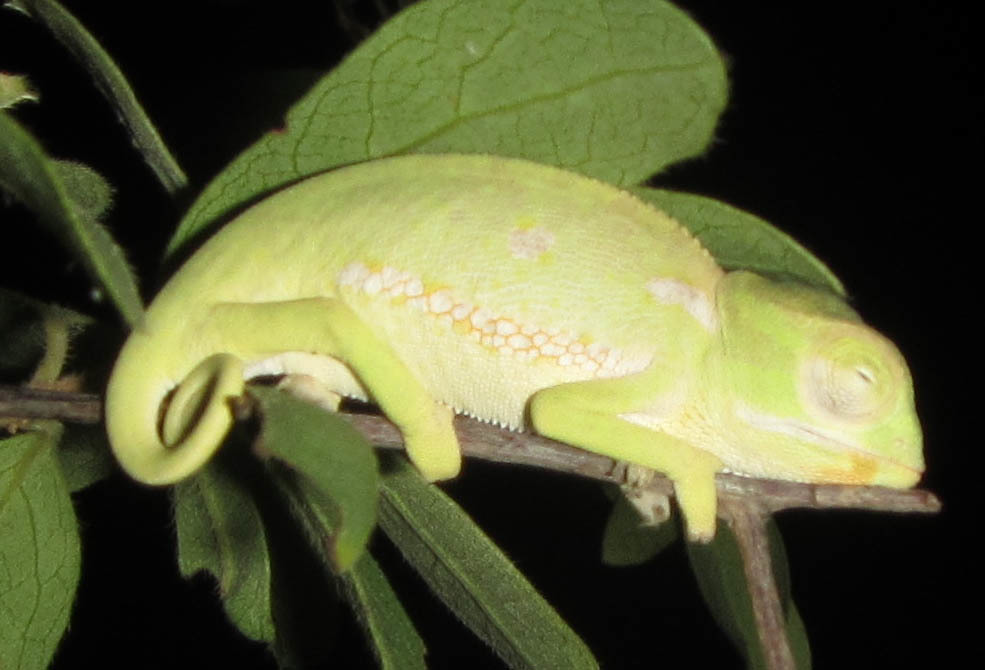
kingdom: Animalia
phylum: Chordata
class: Squamata
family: Chamaeleonidae
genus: Chamaeleo
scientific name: Chamaeleo dilepis
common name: Flapneck chameleon
